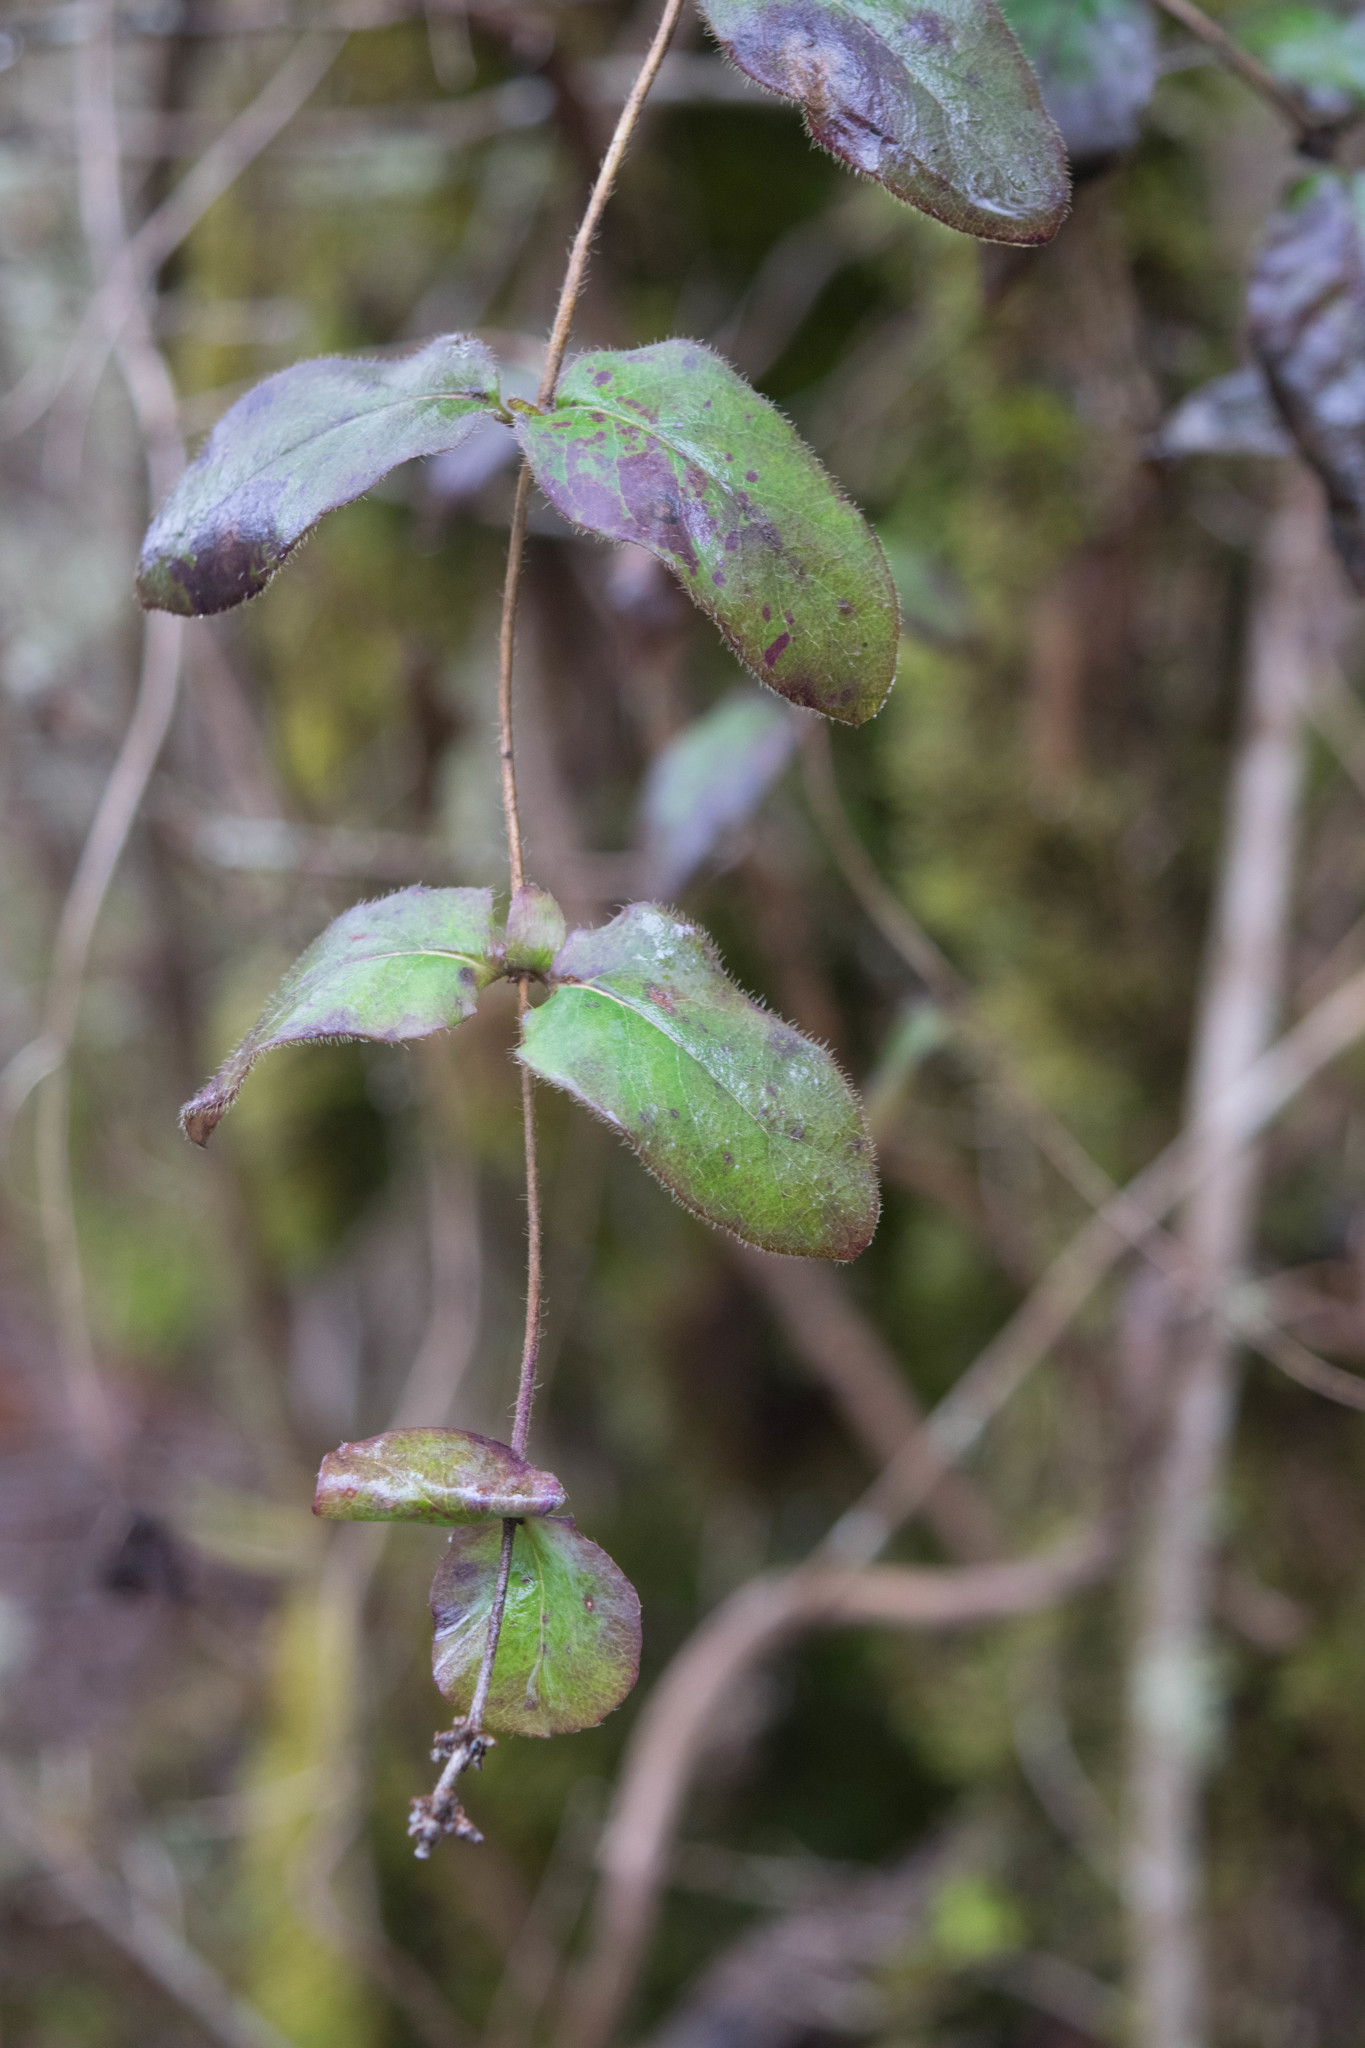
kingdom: Plantae
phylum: Tracheophyta
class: Magnoliopsida
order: Dipsacales
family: Caprifoliaceae
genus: Lonicera
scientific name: Lonicera hispidula
